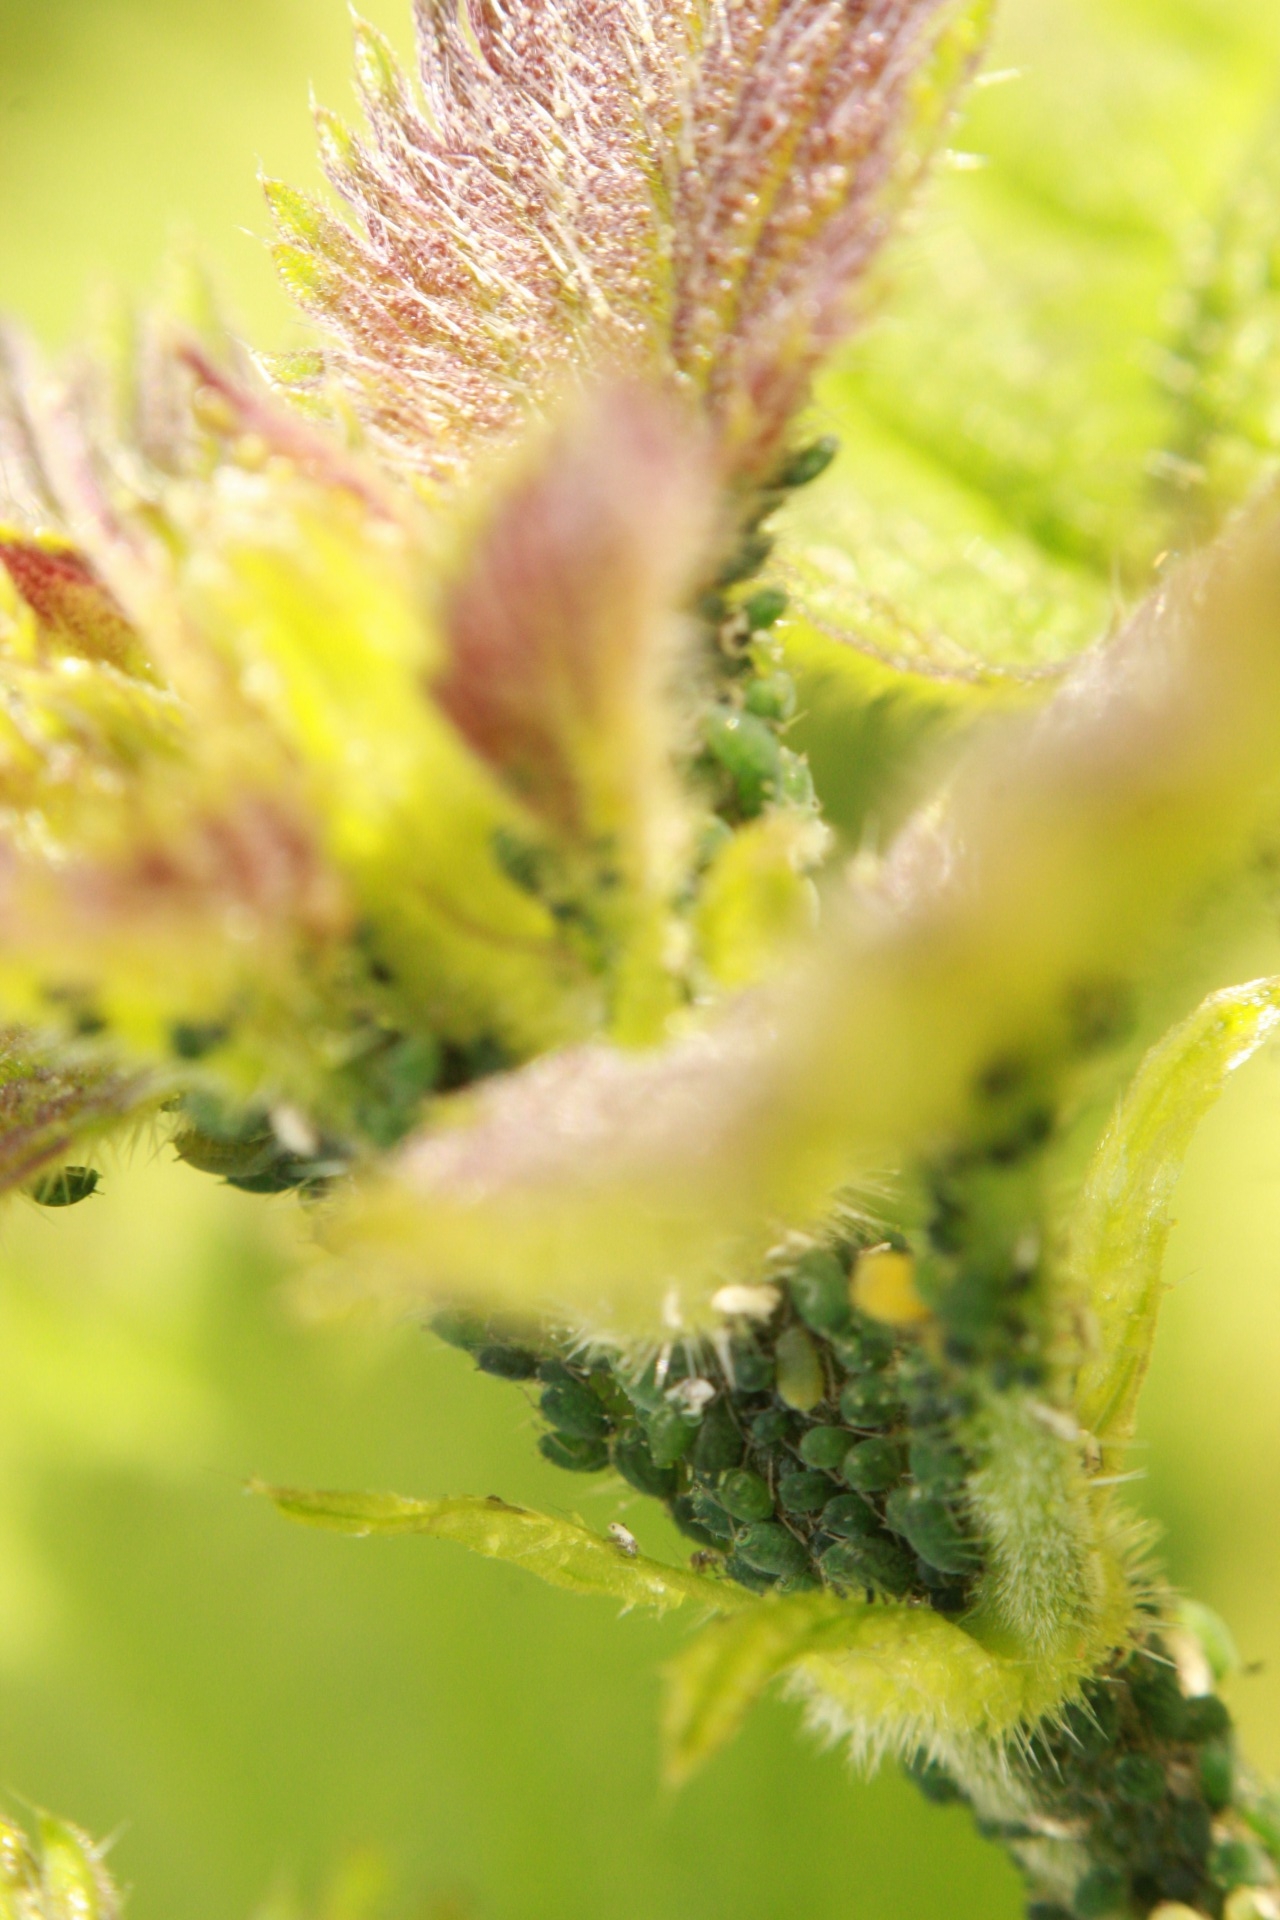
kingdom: Animalia
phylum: Arthropoda
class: Insecta
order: Hemiptera
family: Aphididae
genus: Aphis
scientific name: Aphis urticata
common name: Aphid
